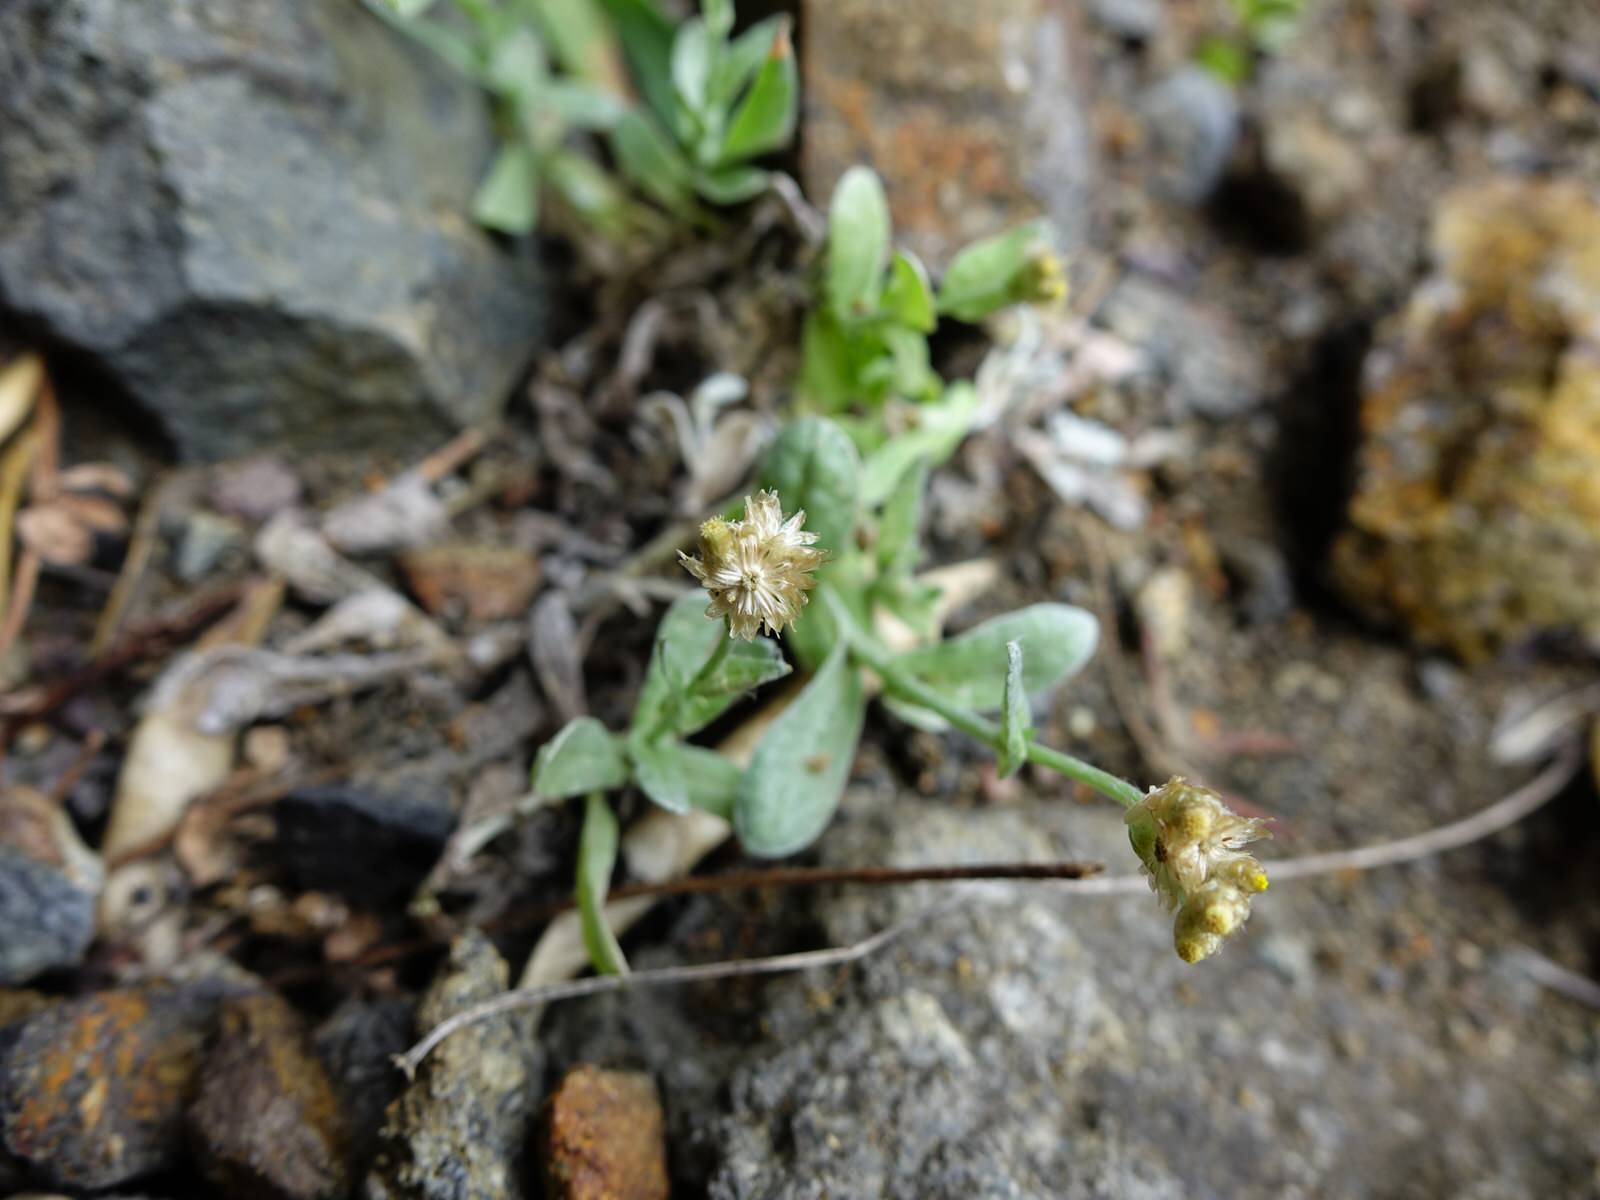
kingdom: Plantae
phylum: Tracheophyta
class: Magnoliopsida
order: Asterales
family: Asteraceae
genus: Helichrysum
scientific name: Helichrysum luteoalbum
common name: Daisy
